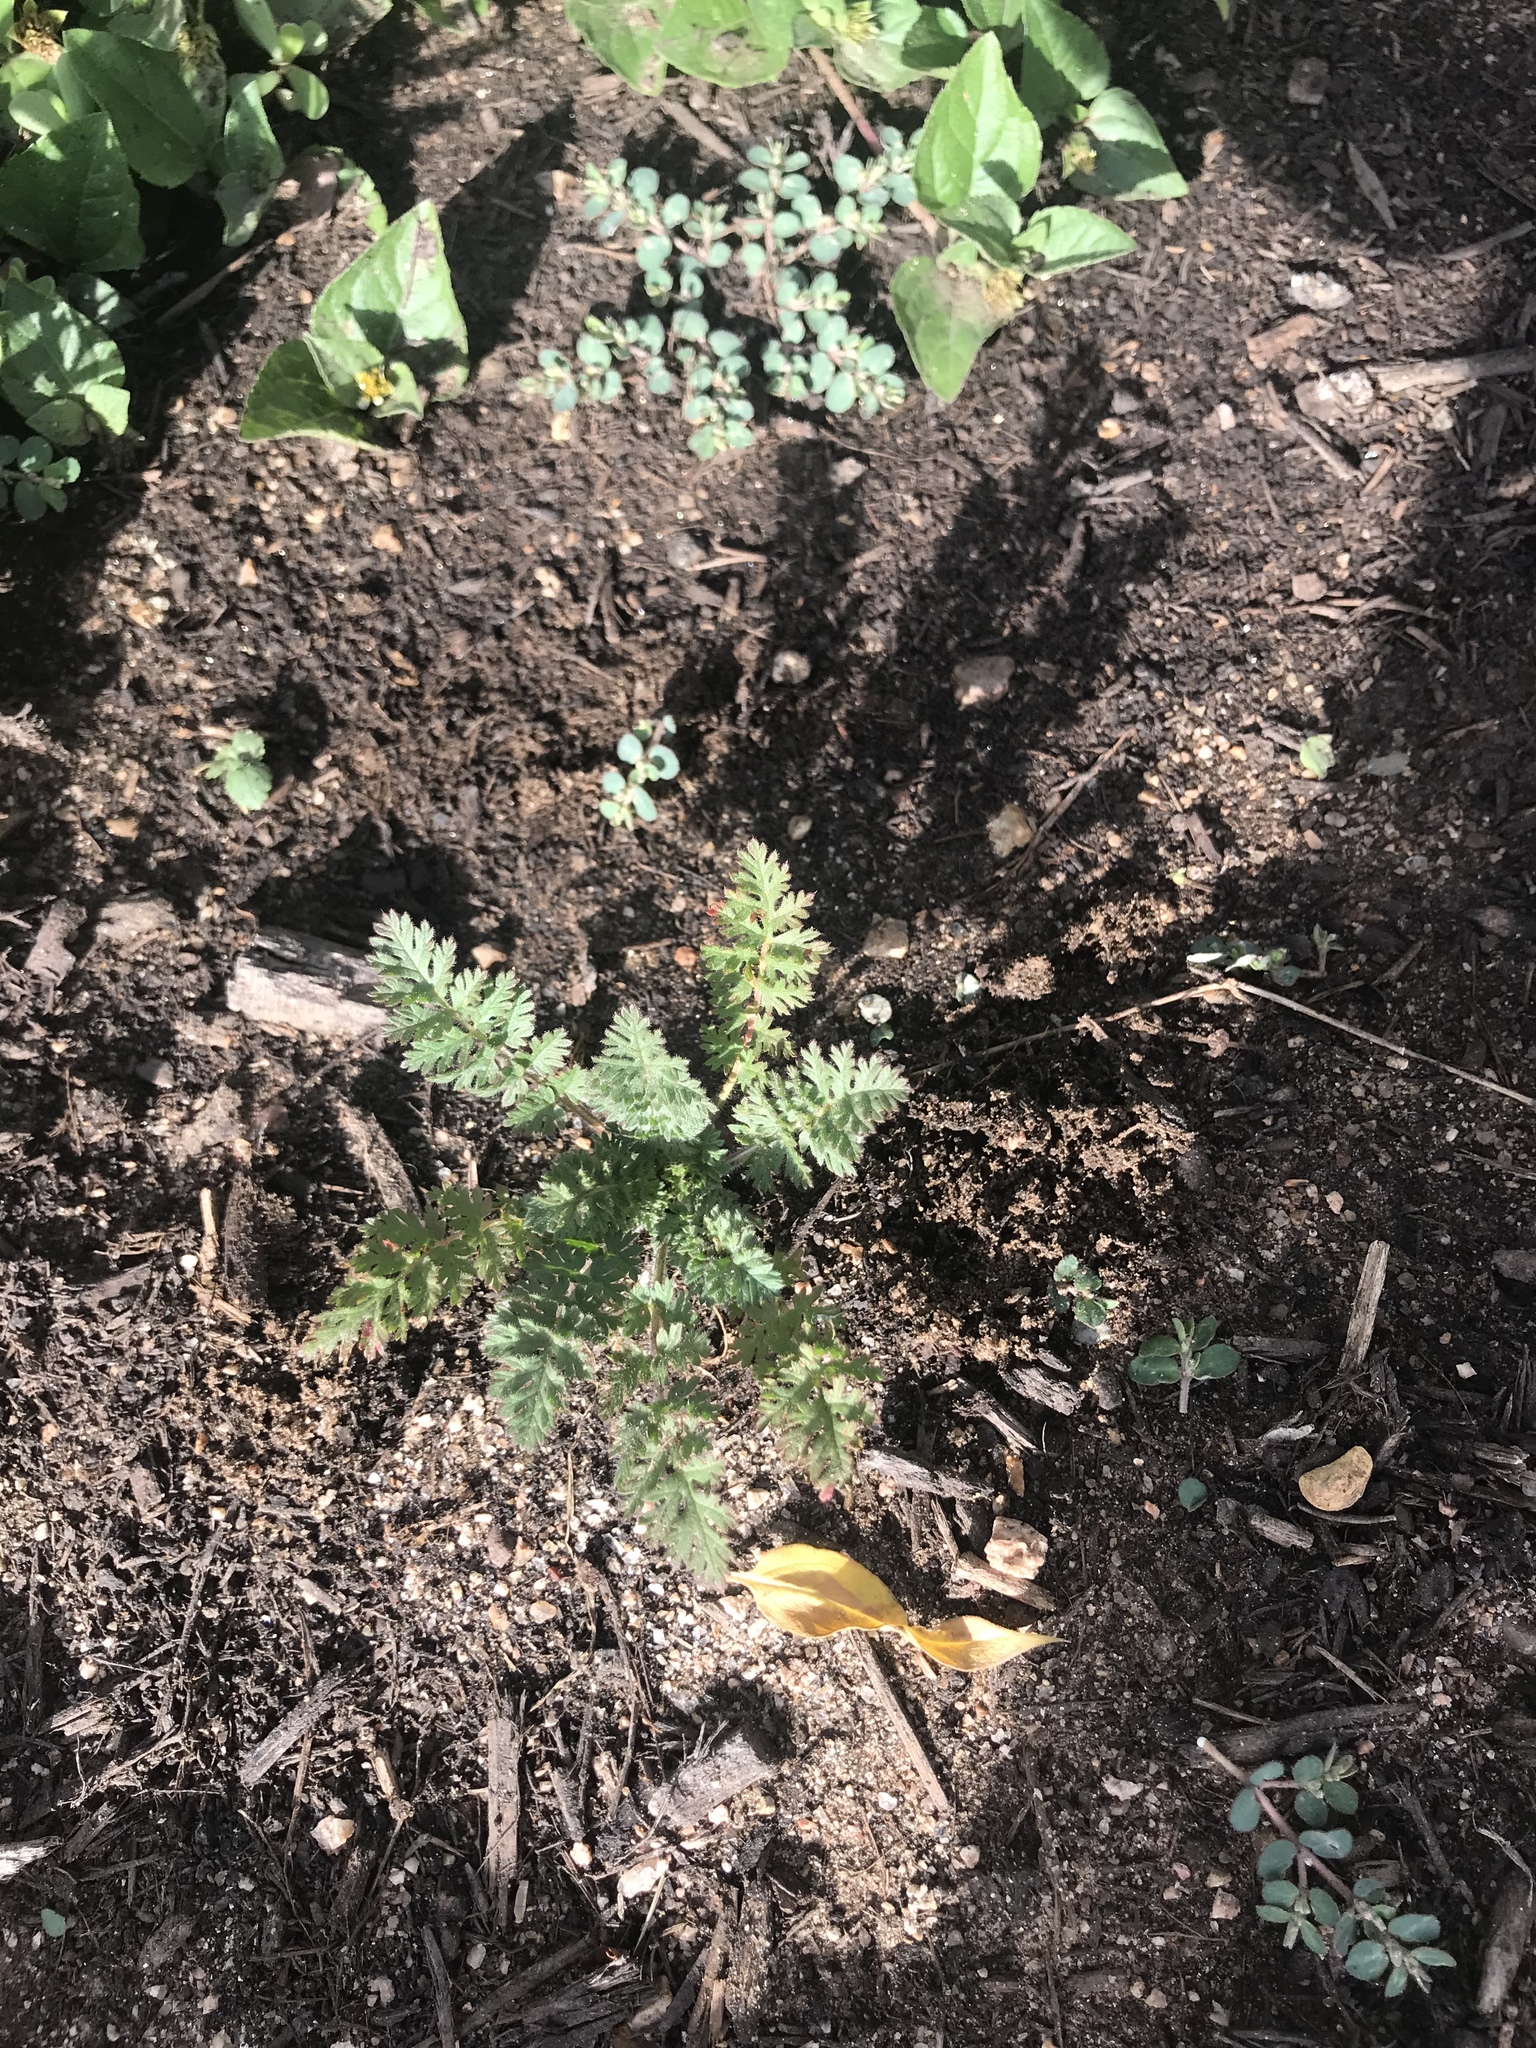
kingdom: Plantae
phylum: Tracheophyta
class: Magnoliopsida
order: Geraniales
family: Geraniaceae
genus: Erodium
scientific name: Erodium cicutarium
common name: Common stork's-bill
